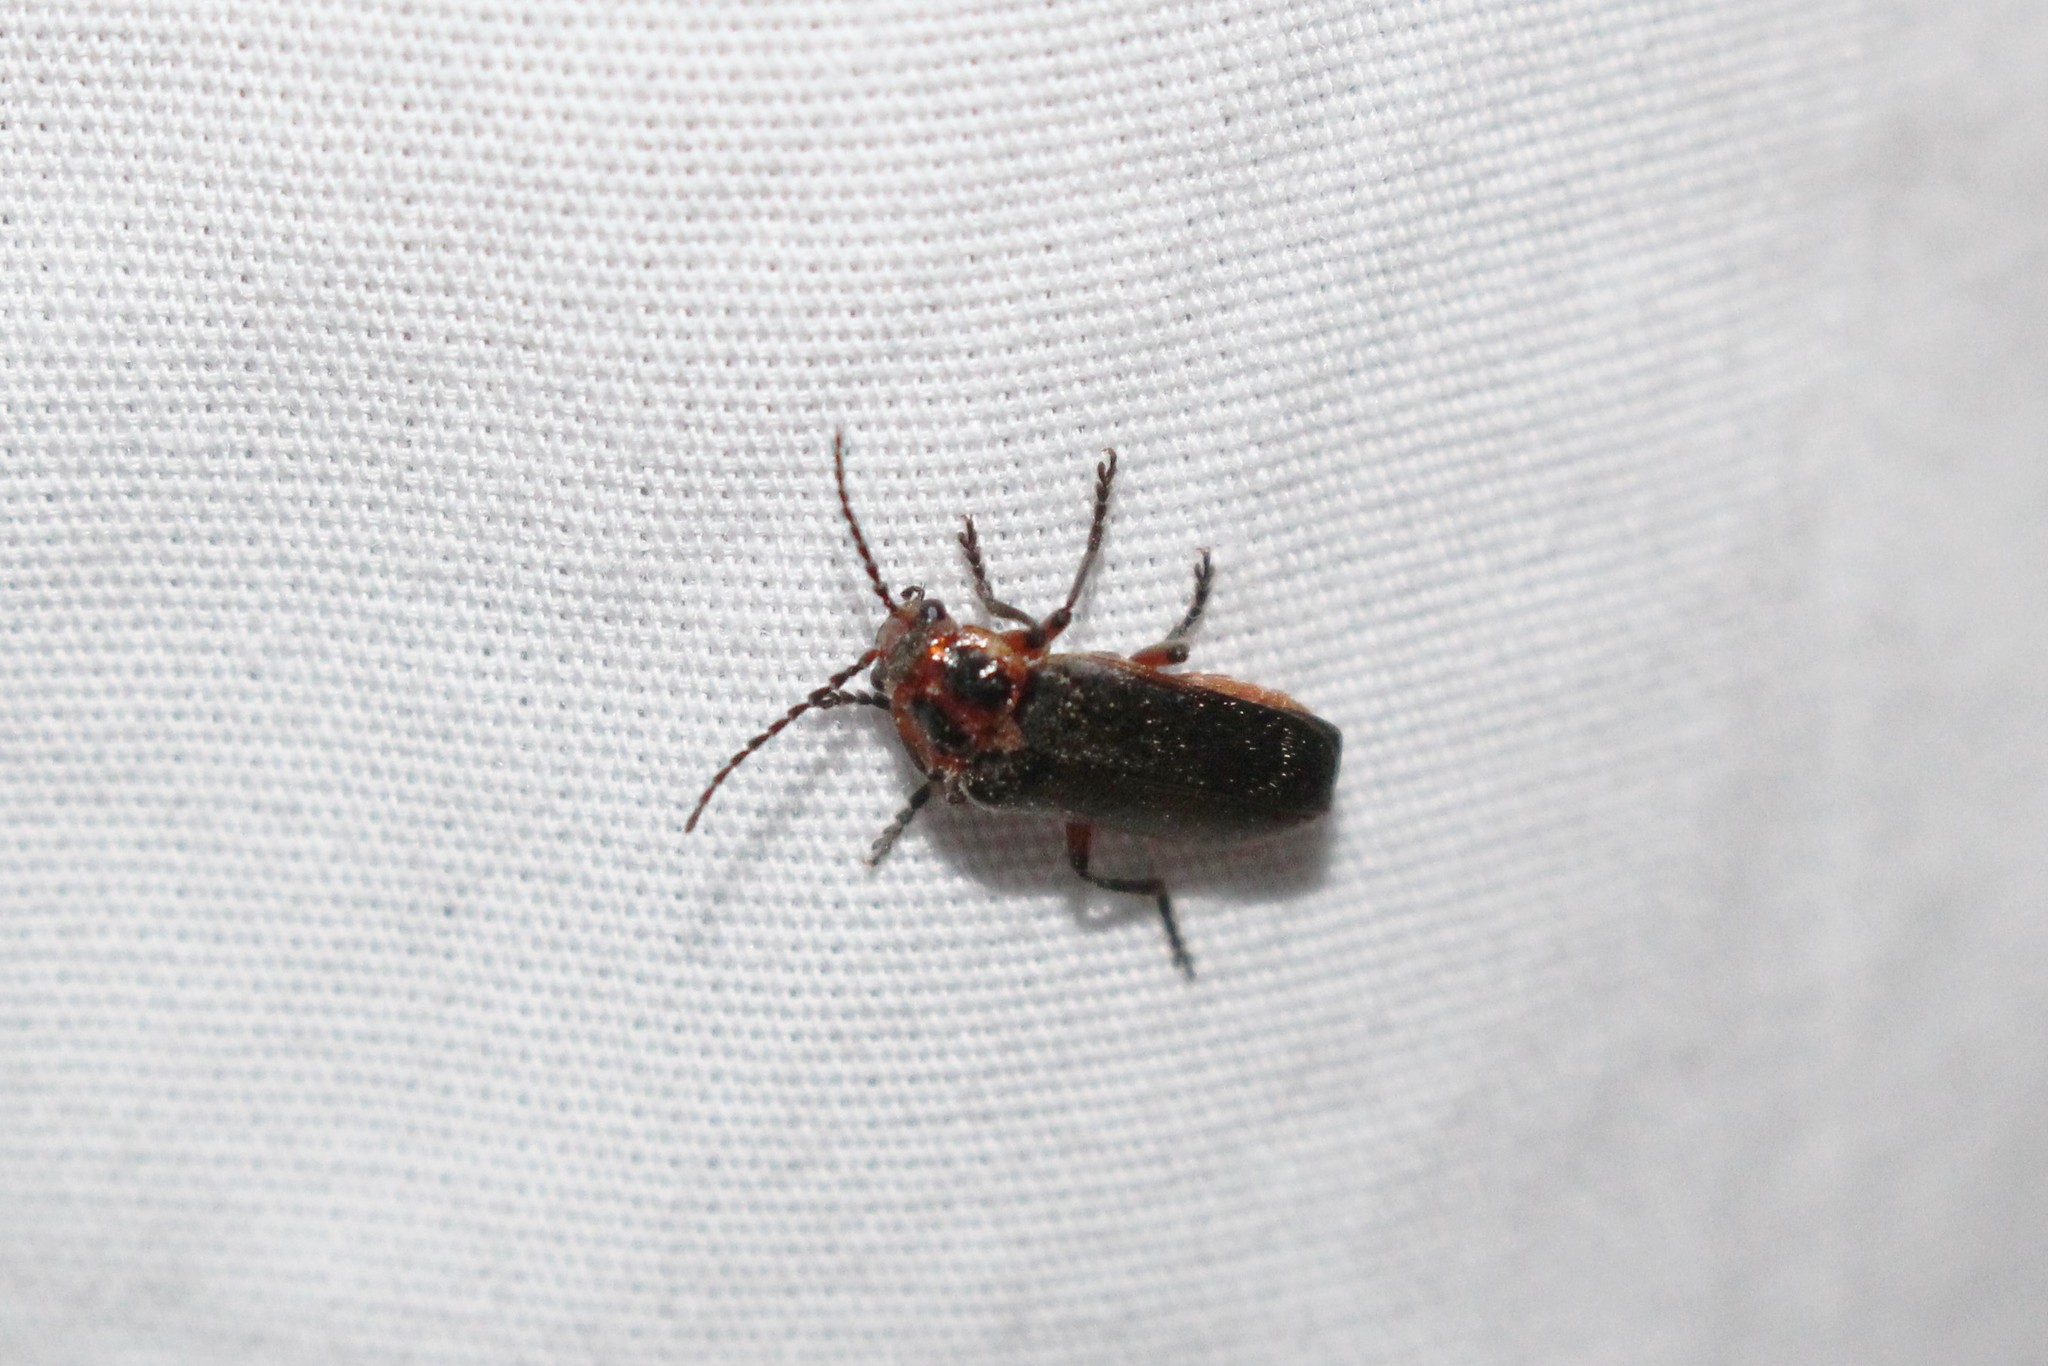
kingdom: Animalia
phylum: Arthropoda
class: Insecta
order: Coleoptera
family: Cantharidae
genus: Atalantycha
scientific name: Atalantycha bilineata
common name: Two-lined leatherwing
